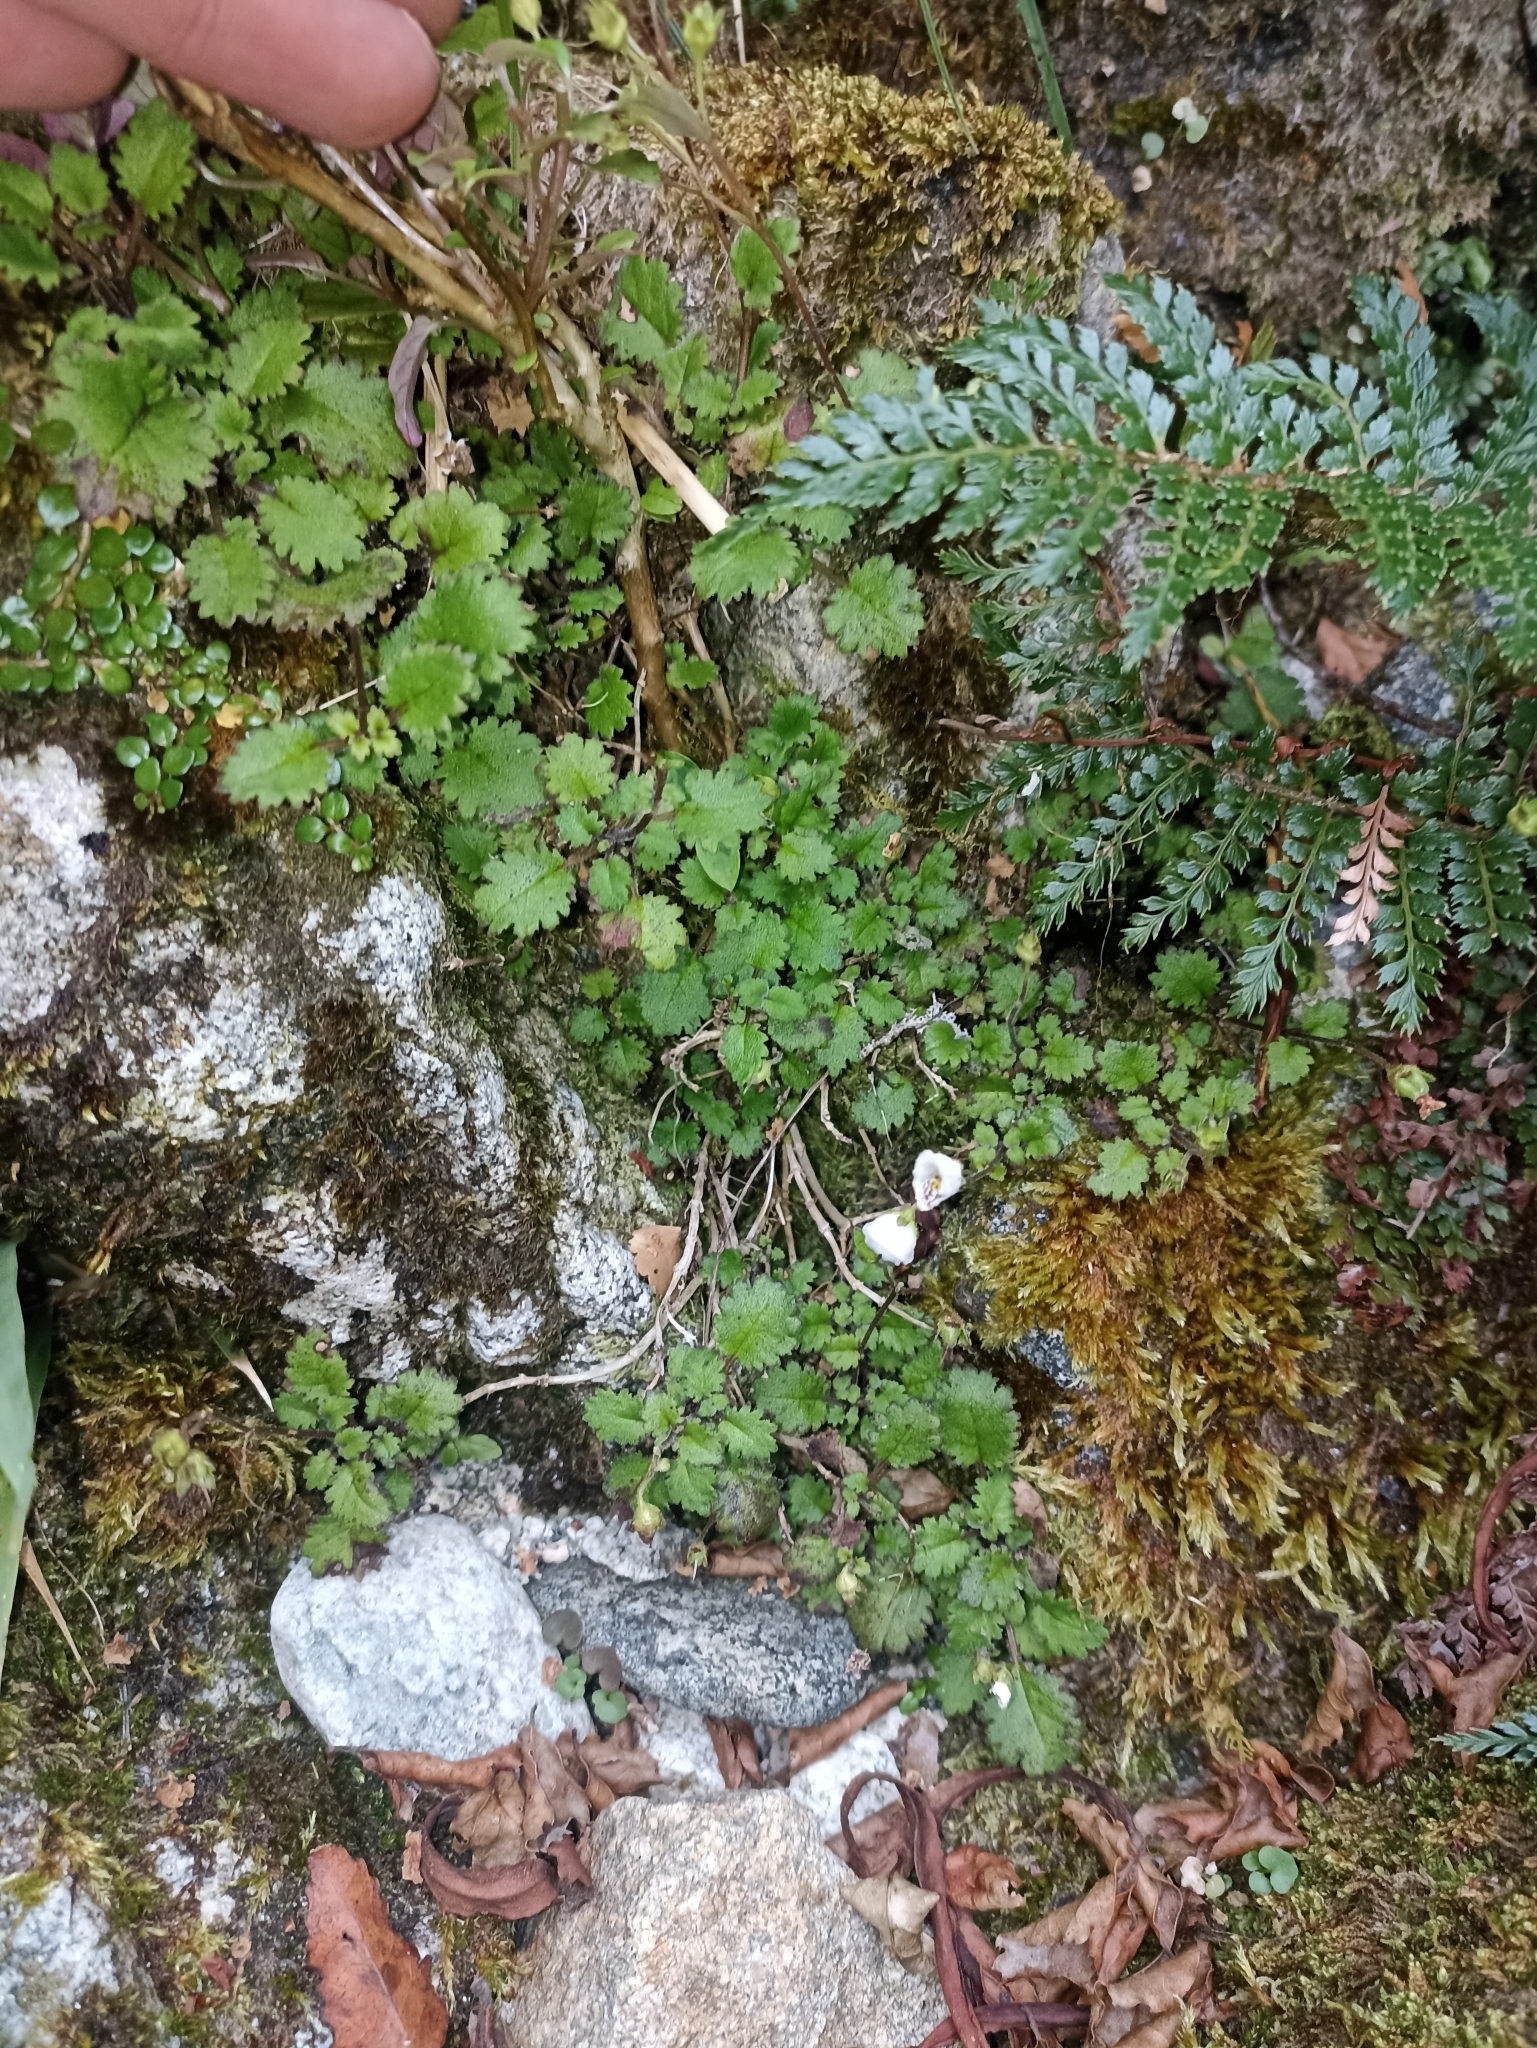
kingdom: Plantae
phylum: Tracheophyta
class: Magnoliopsida
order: Lamiales
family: Calceolariaceae
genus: Jovellana
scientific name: Jovellana repens
